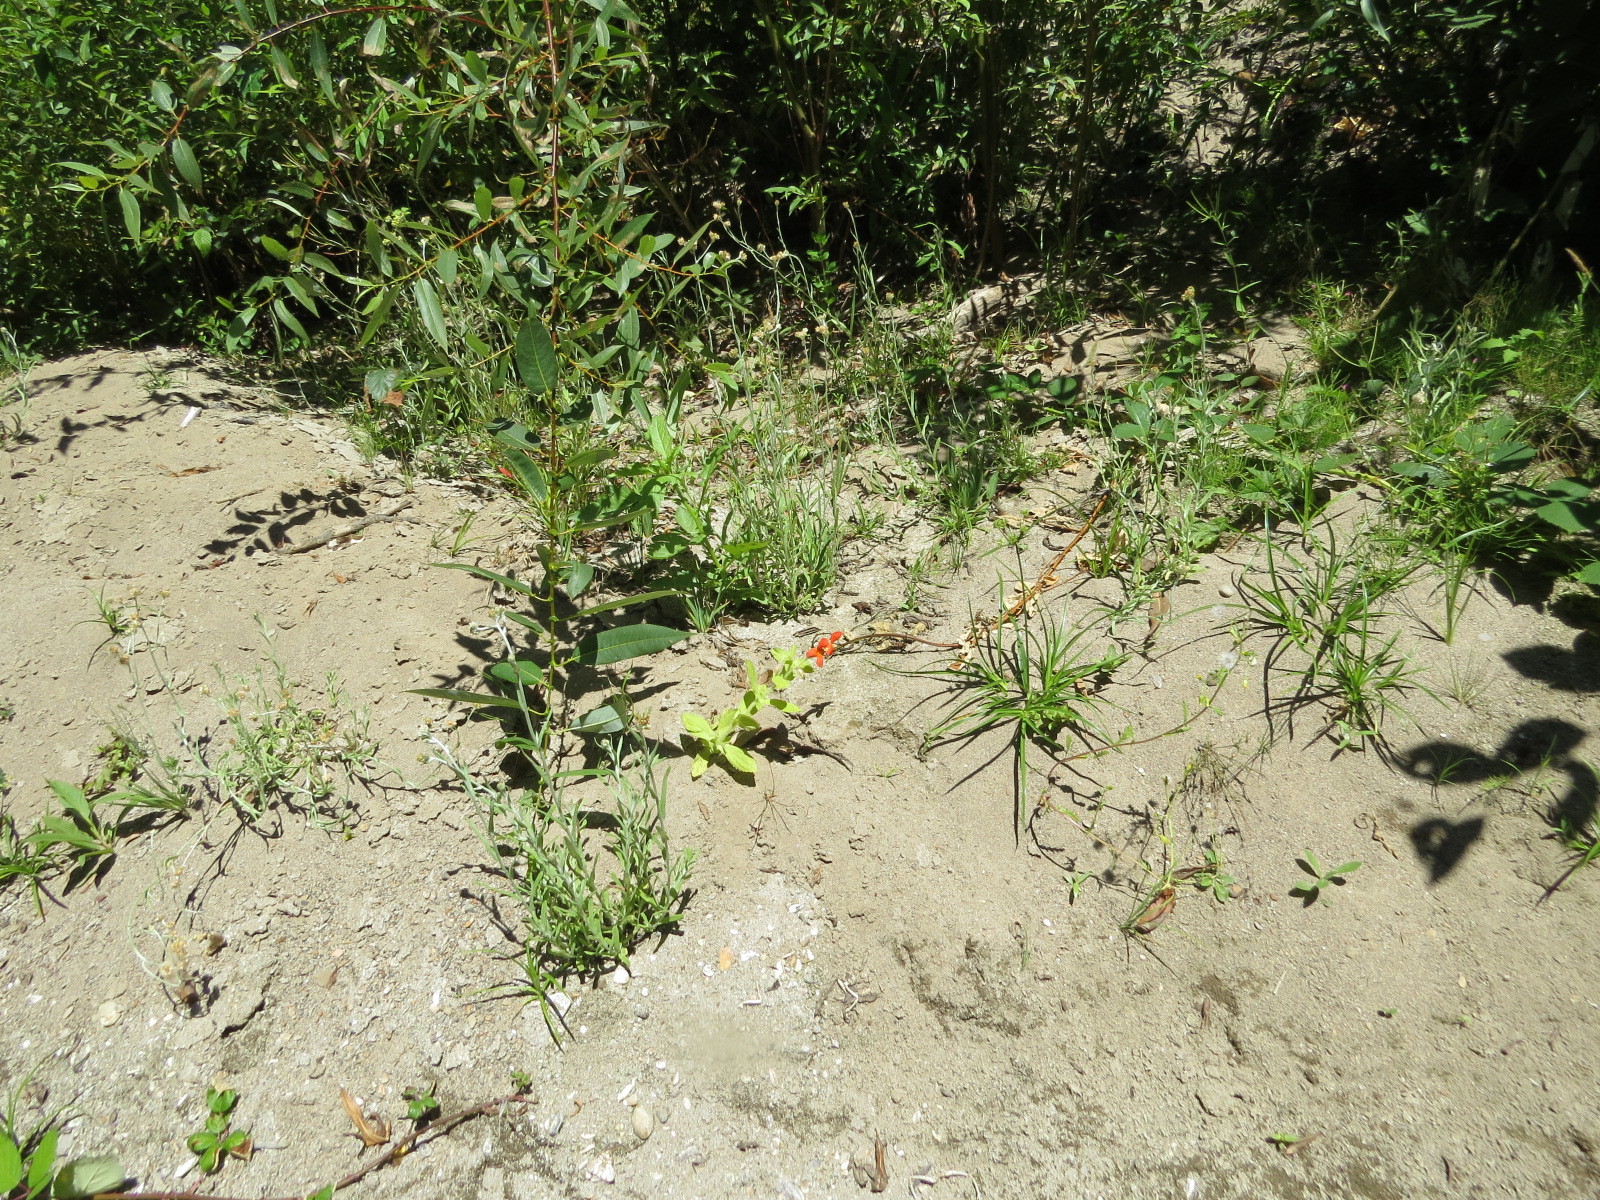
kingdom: Plantae
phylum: Tracheophyta
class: Magnoliopsida
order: Lamiales
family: Phrymaceae
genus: Erythranthe
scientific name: Erythranthe cardinalis
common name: Scarlet monkey-flower
